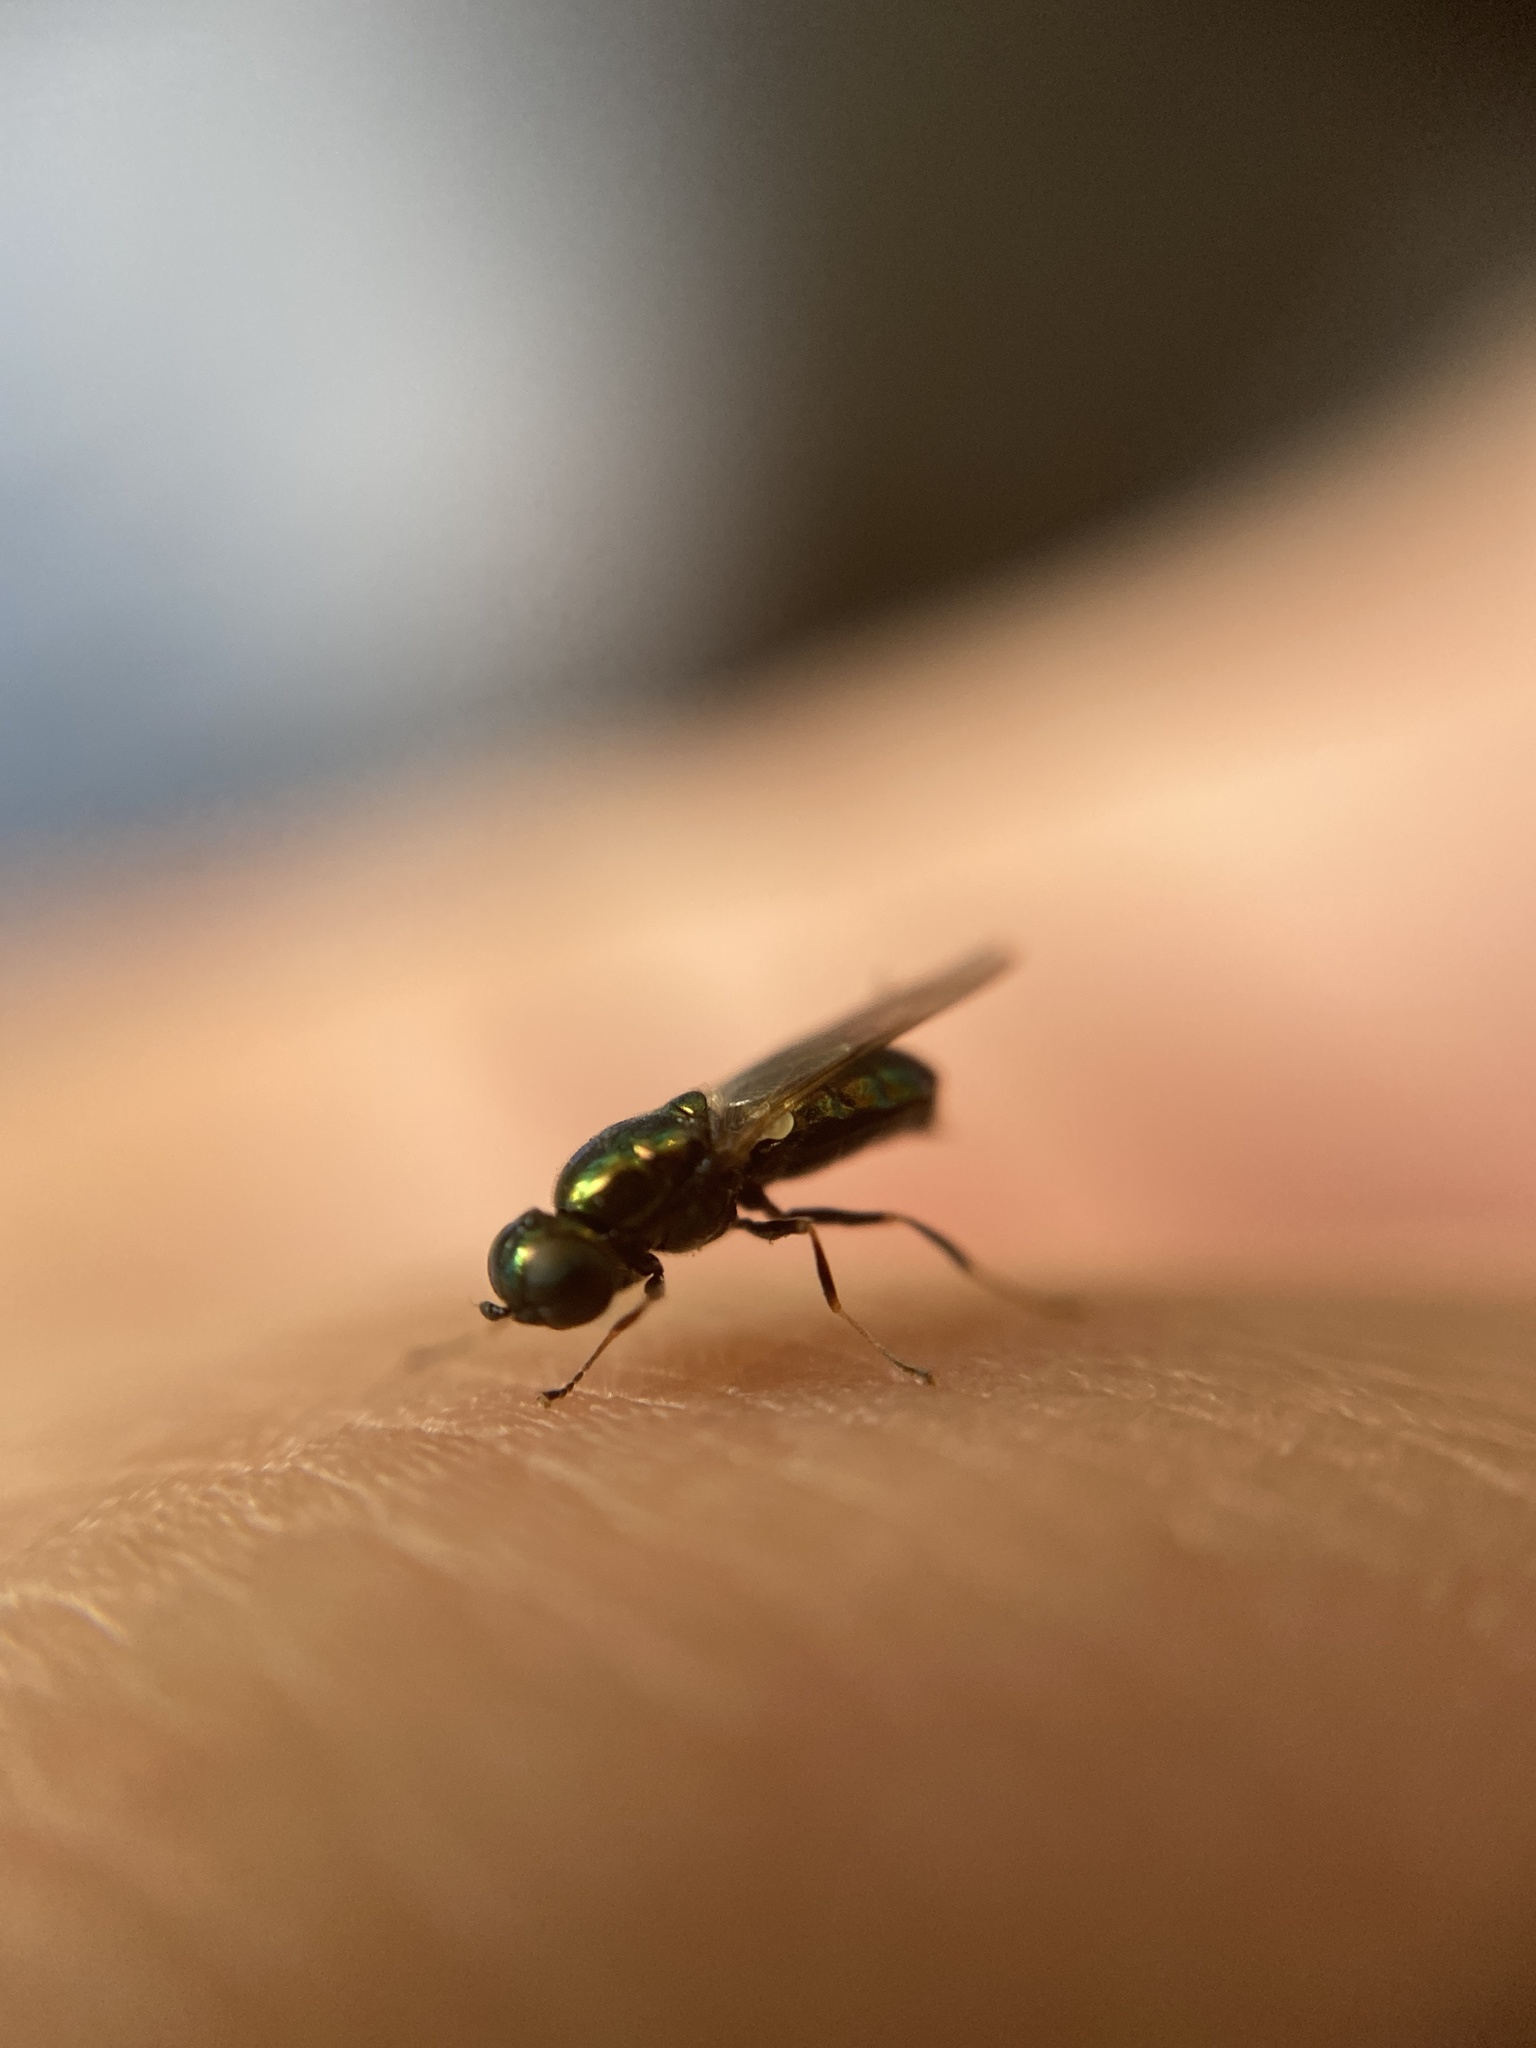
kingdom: Animalia
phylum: Arthropoda
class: Insecta
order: Diptera
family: Stratiomyidae
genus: Microchrysa
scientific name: Microchrysa polita
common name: Black-horned gem
